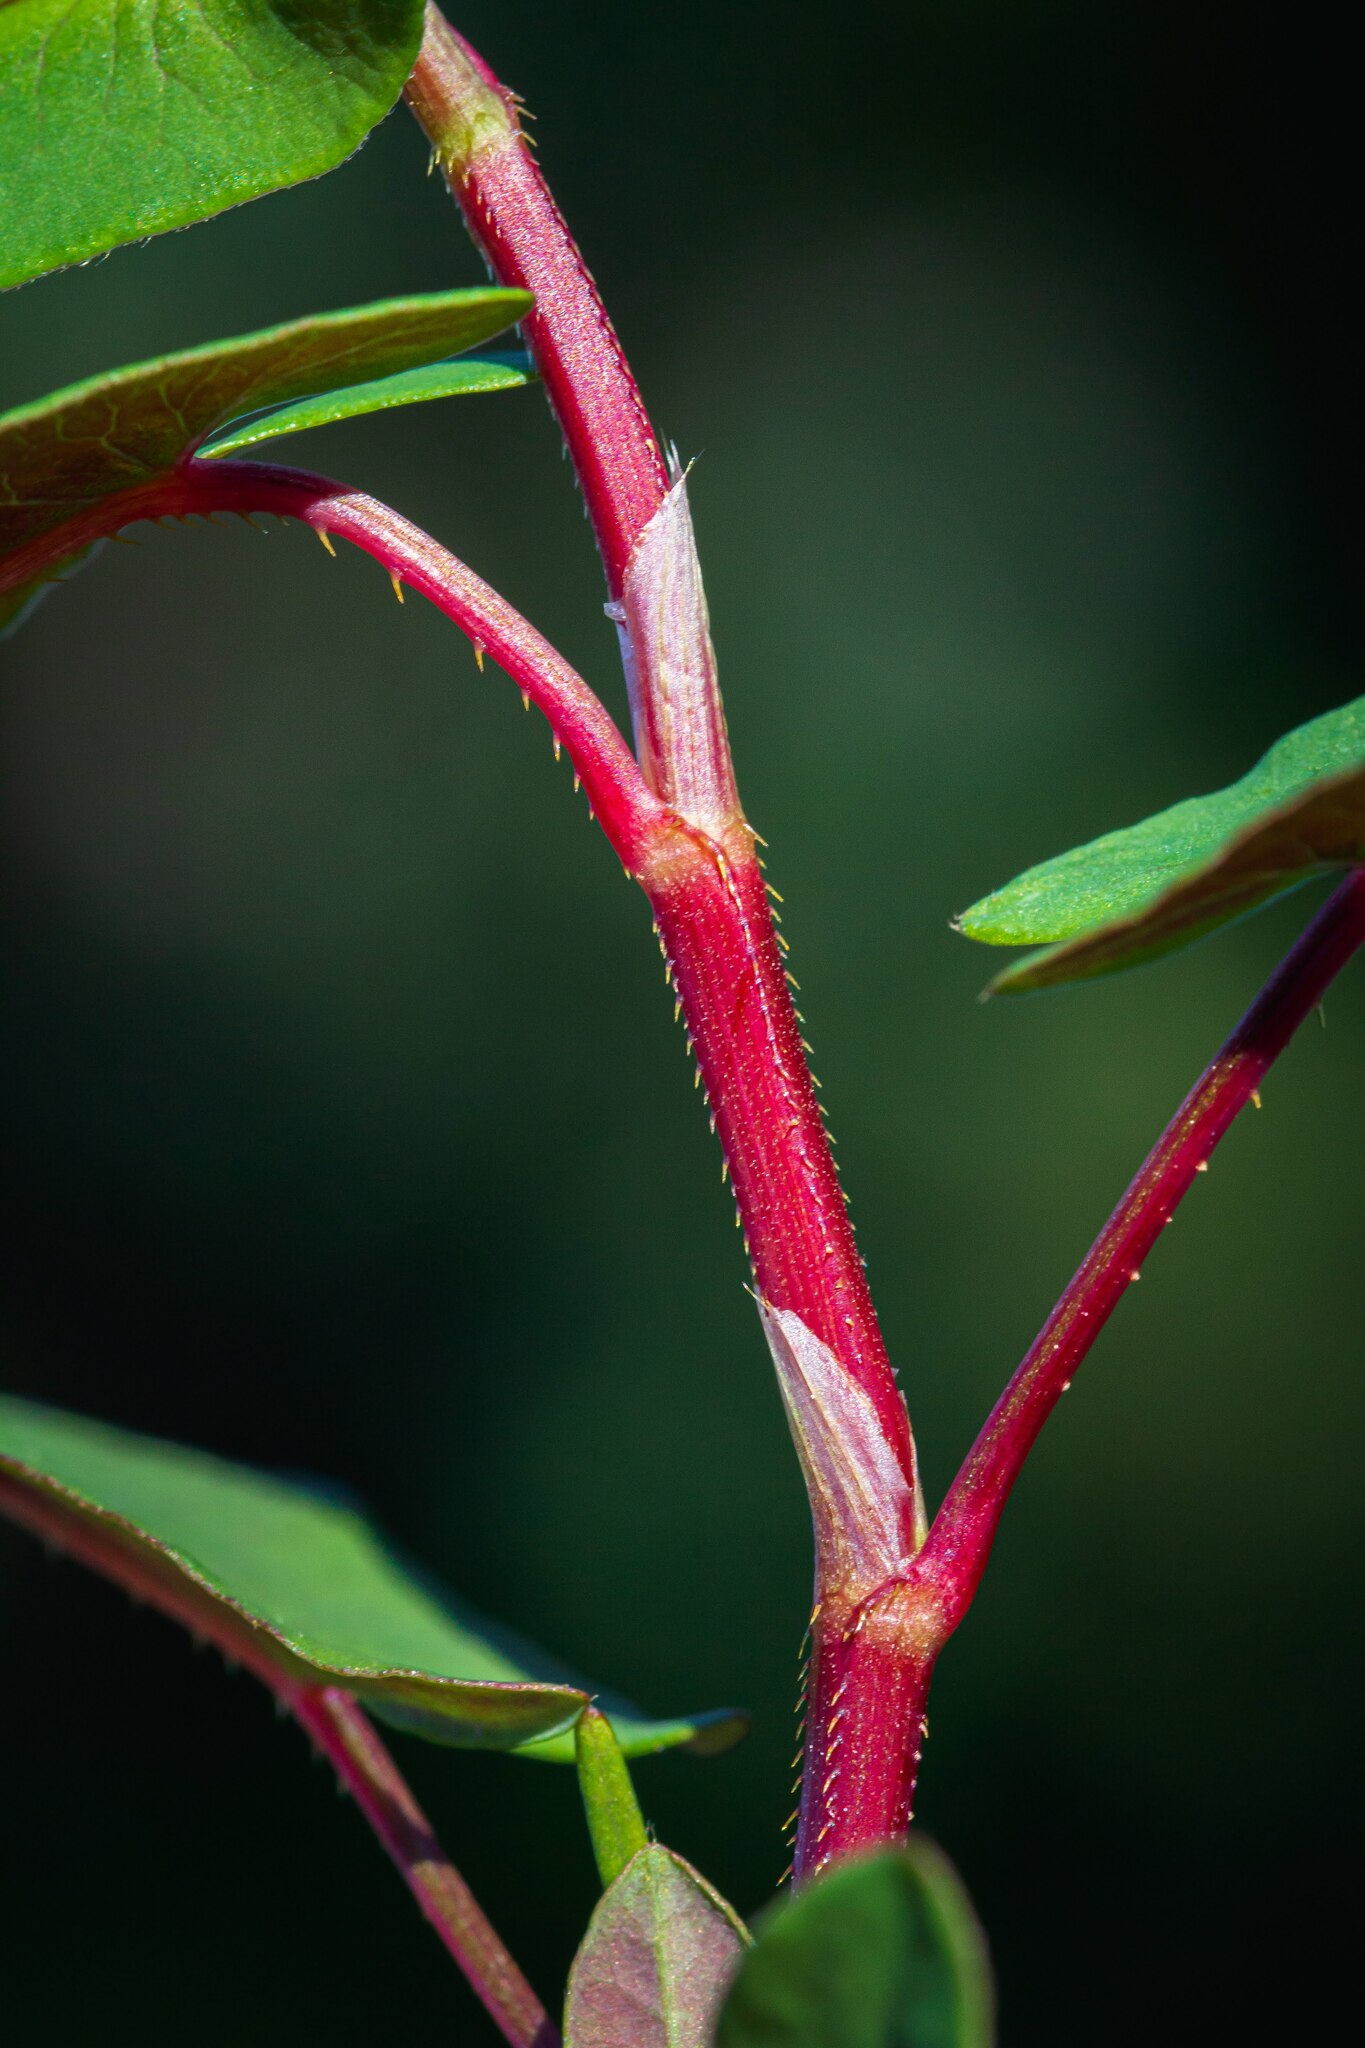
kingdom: Plantae
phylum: Tracheophyta
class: Magnoliopsida
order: Caryophyllales
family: Polygonaceae
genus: Persicaria
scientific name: Persicaria sagittata
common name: American tearthumb
